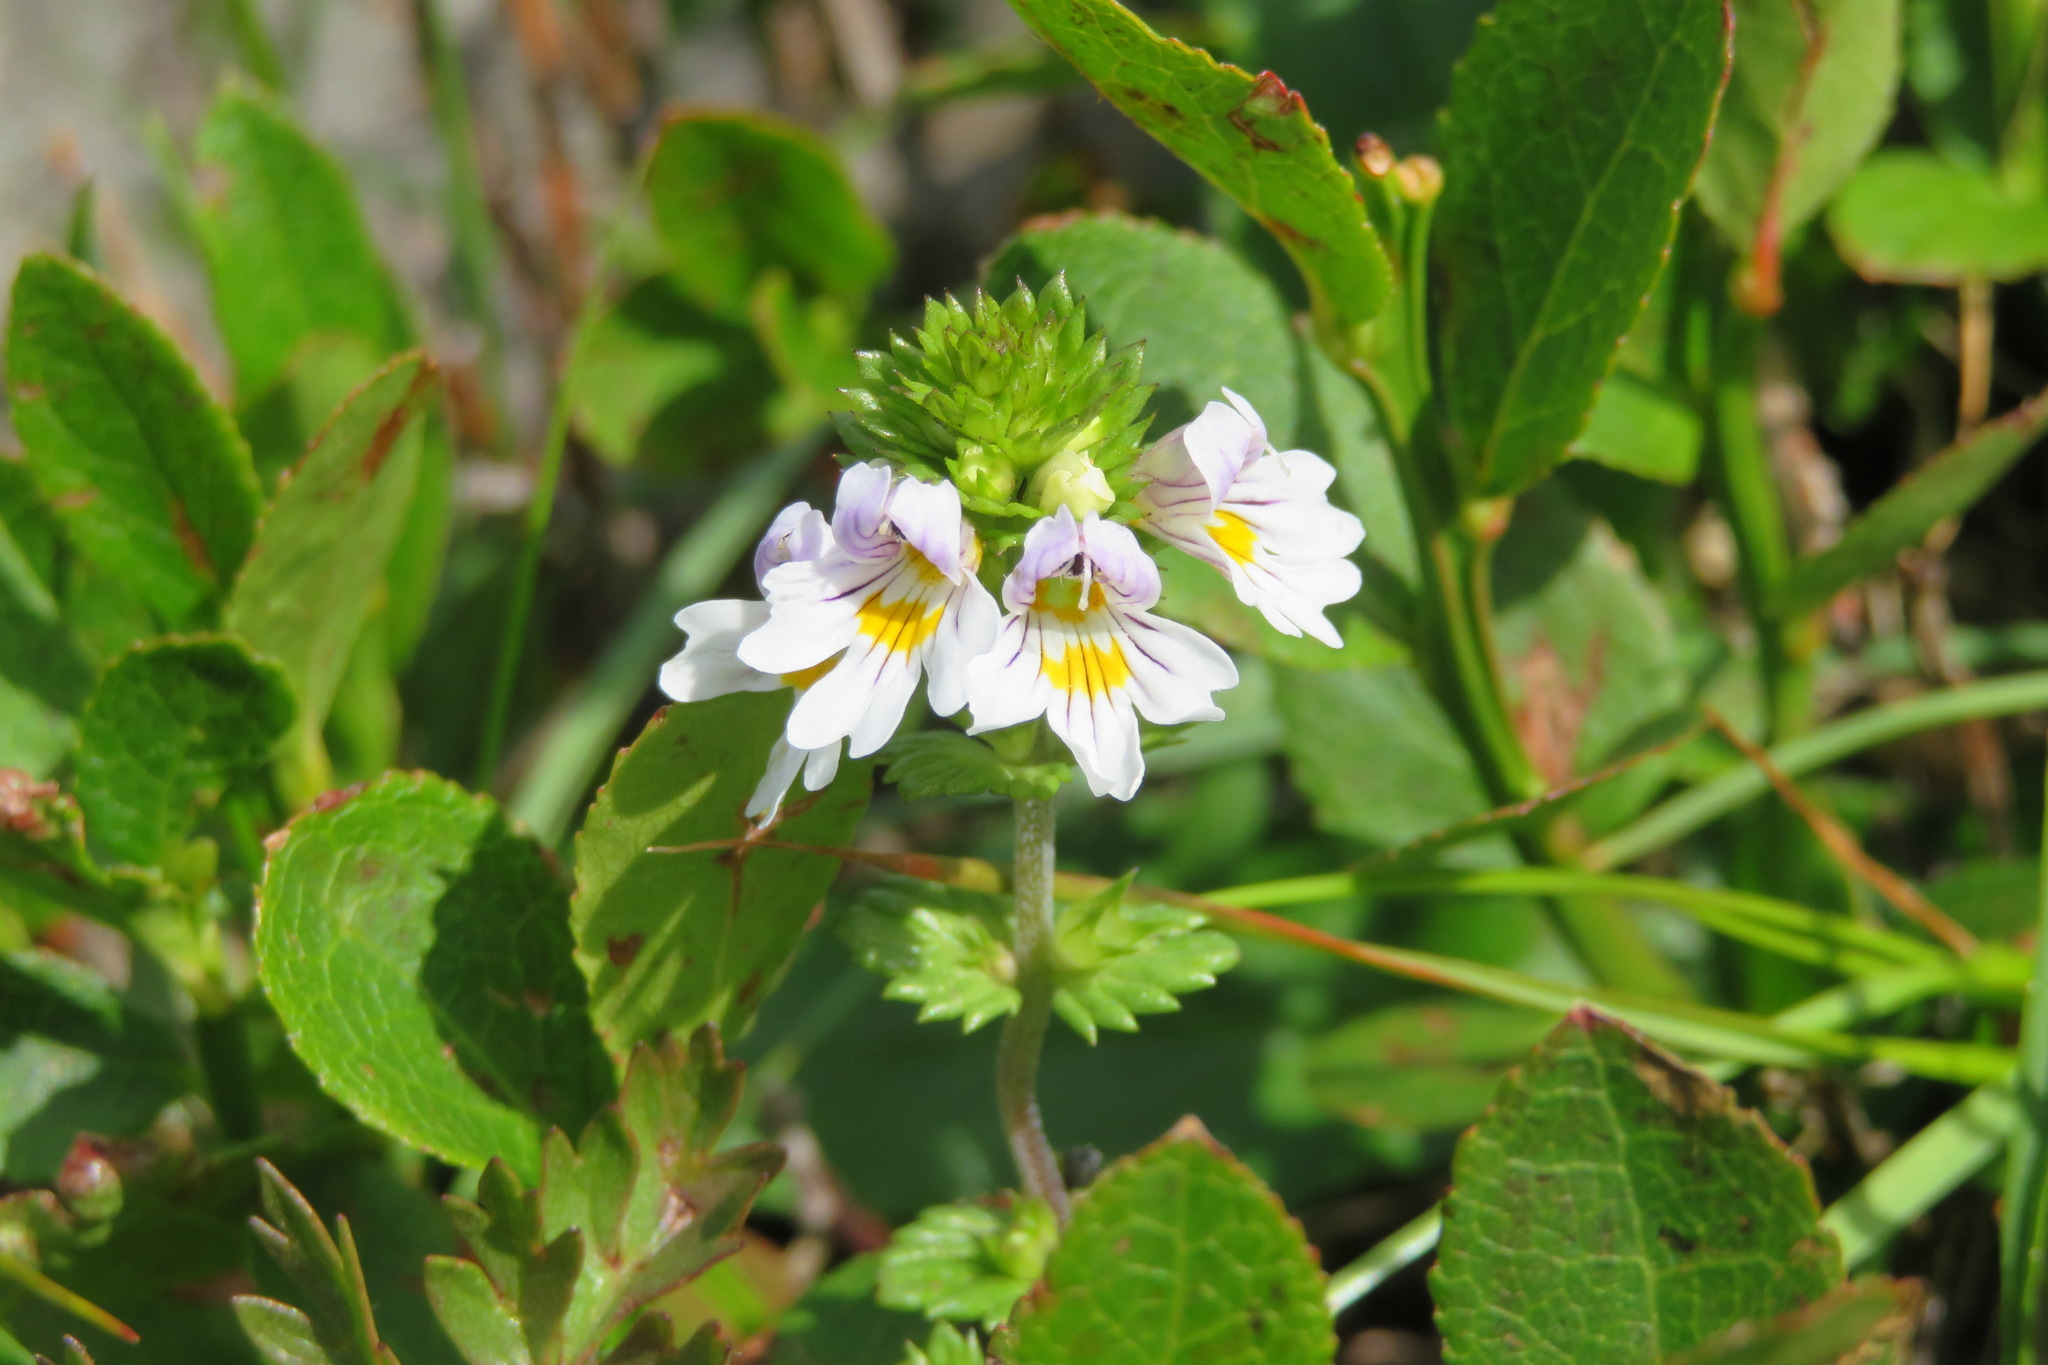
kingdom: Plantae
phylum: Tracheophyta
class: Magnoliopsida
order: Lamiales
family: Orobanchaceae
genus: Euphrasia
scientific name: Euphrasia officinalis
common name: Eyebright
